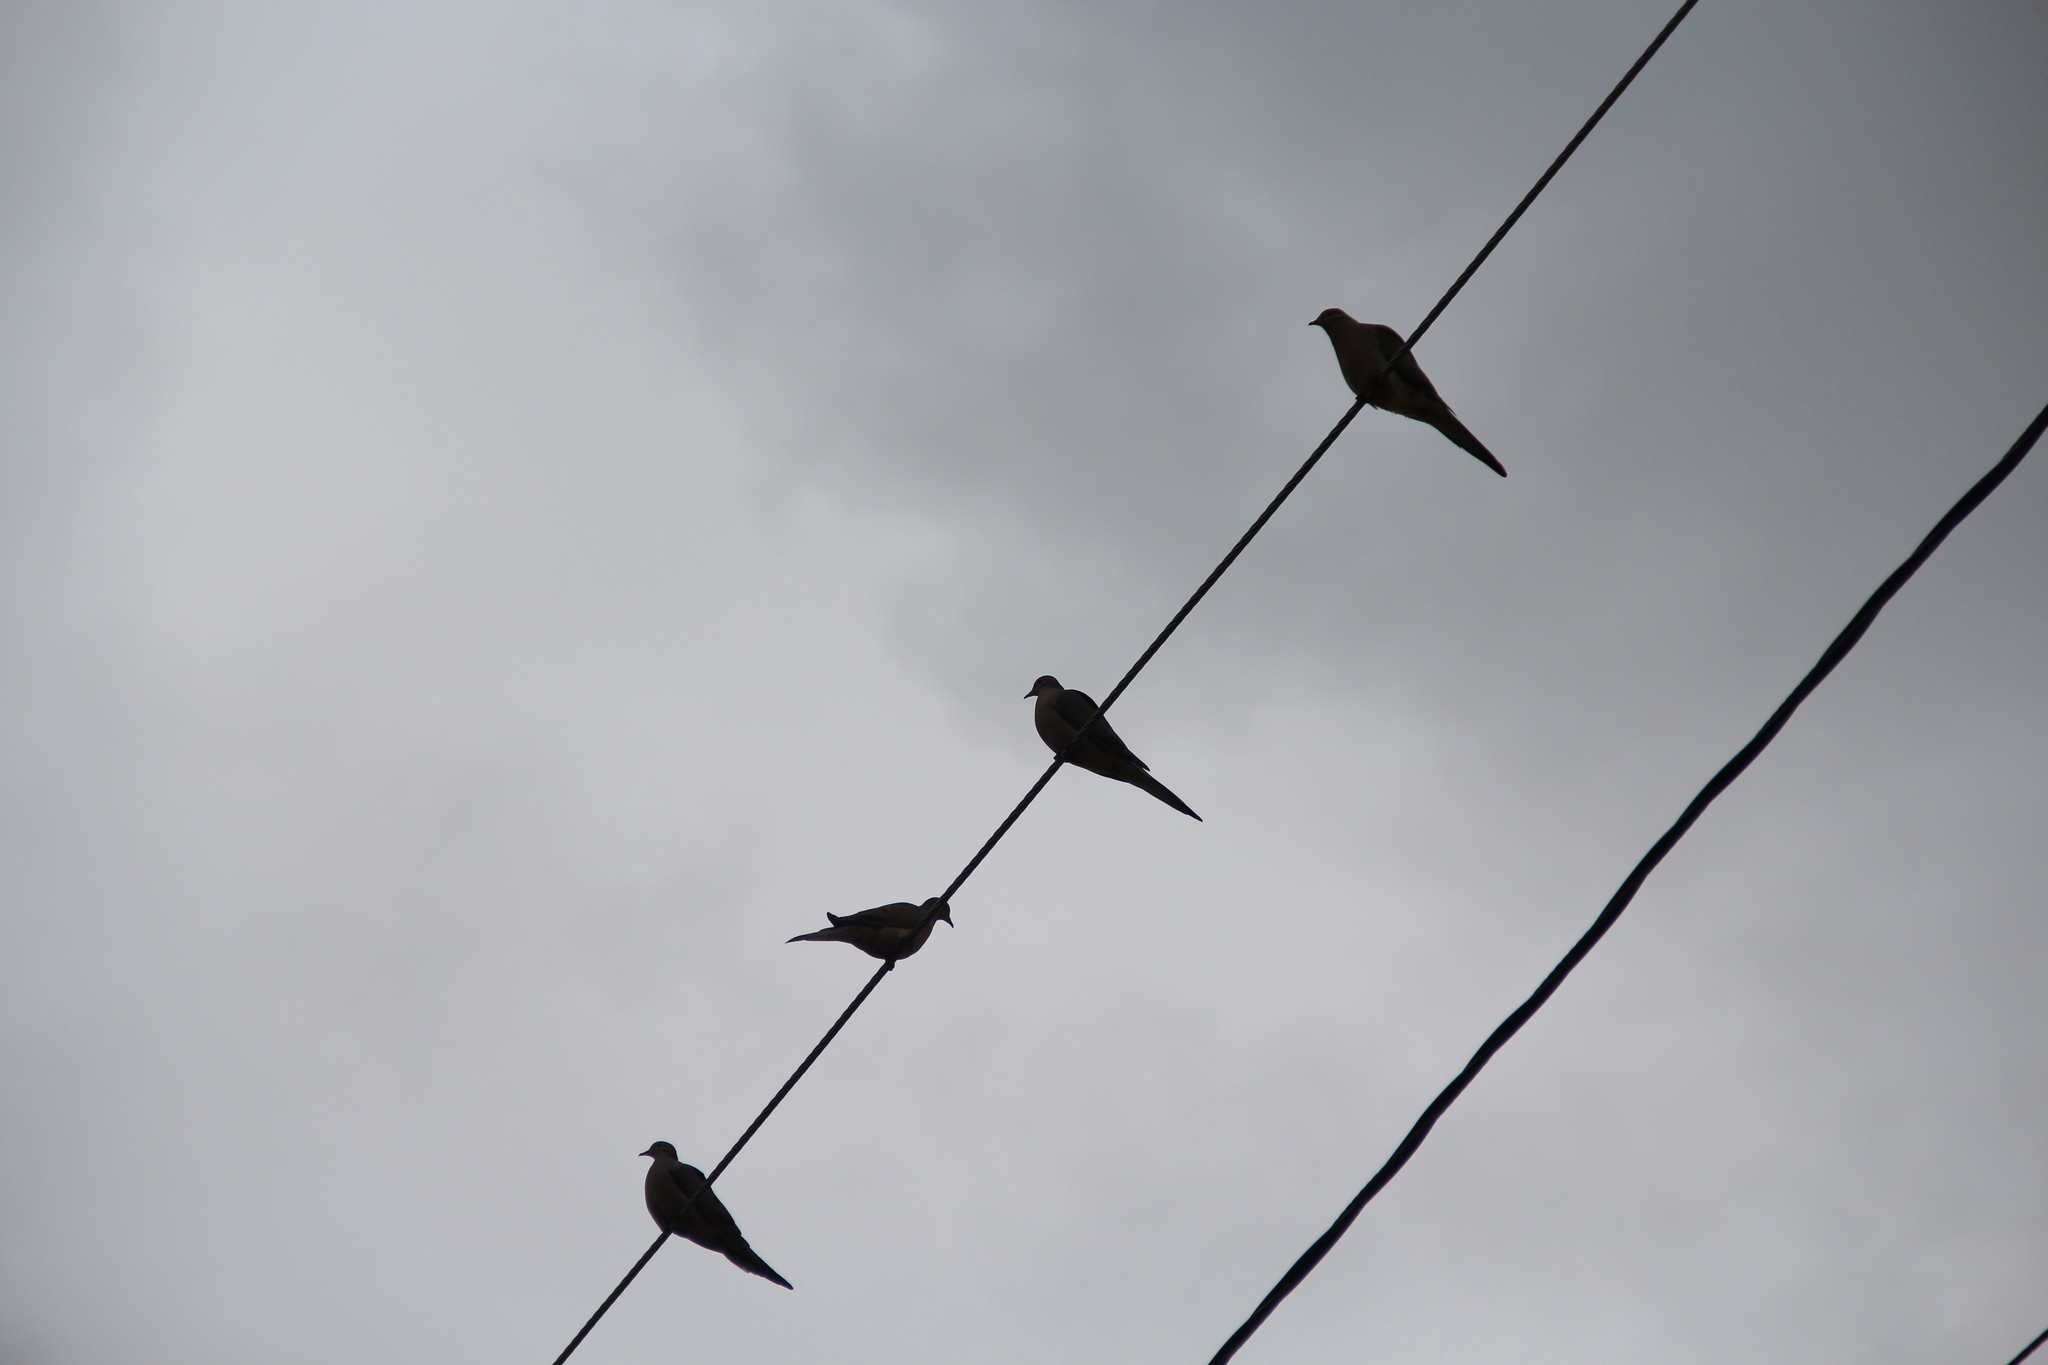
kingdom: Animalia
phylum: Chordata
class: Aves
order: Columbiformes
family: Columbidae
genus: Zenaida
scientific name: Zenaida macroura
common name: Mourning dove
